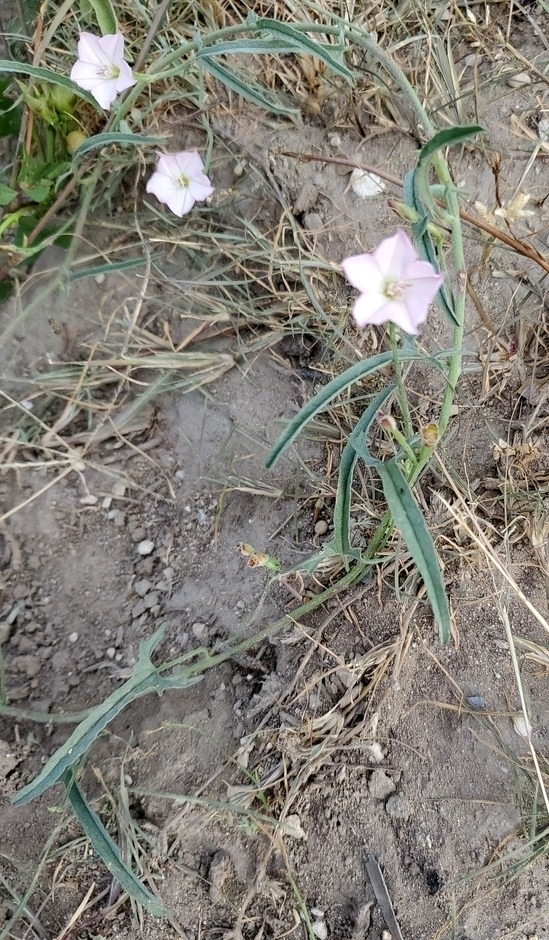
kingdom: Plantae
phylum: Tracheophyta
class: Magnoliopsida
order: Solanales
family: Convolvulaceae
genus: Convolvulus
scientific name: Convolvulus equitans
